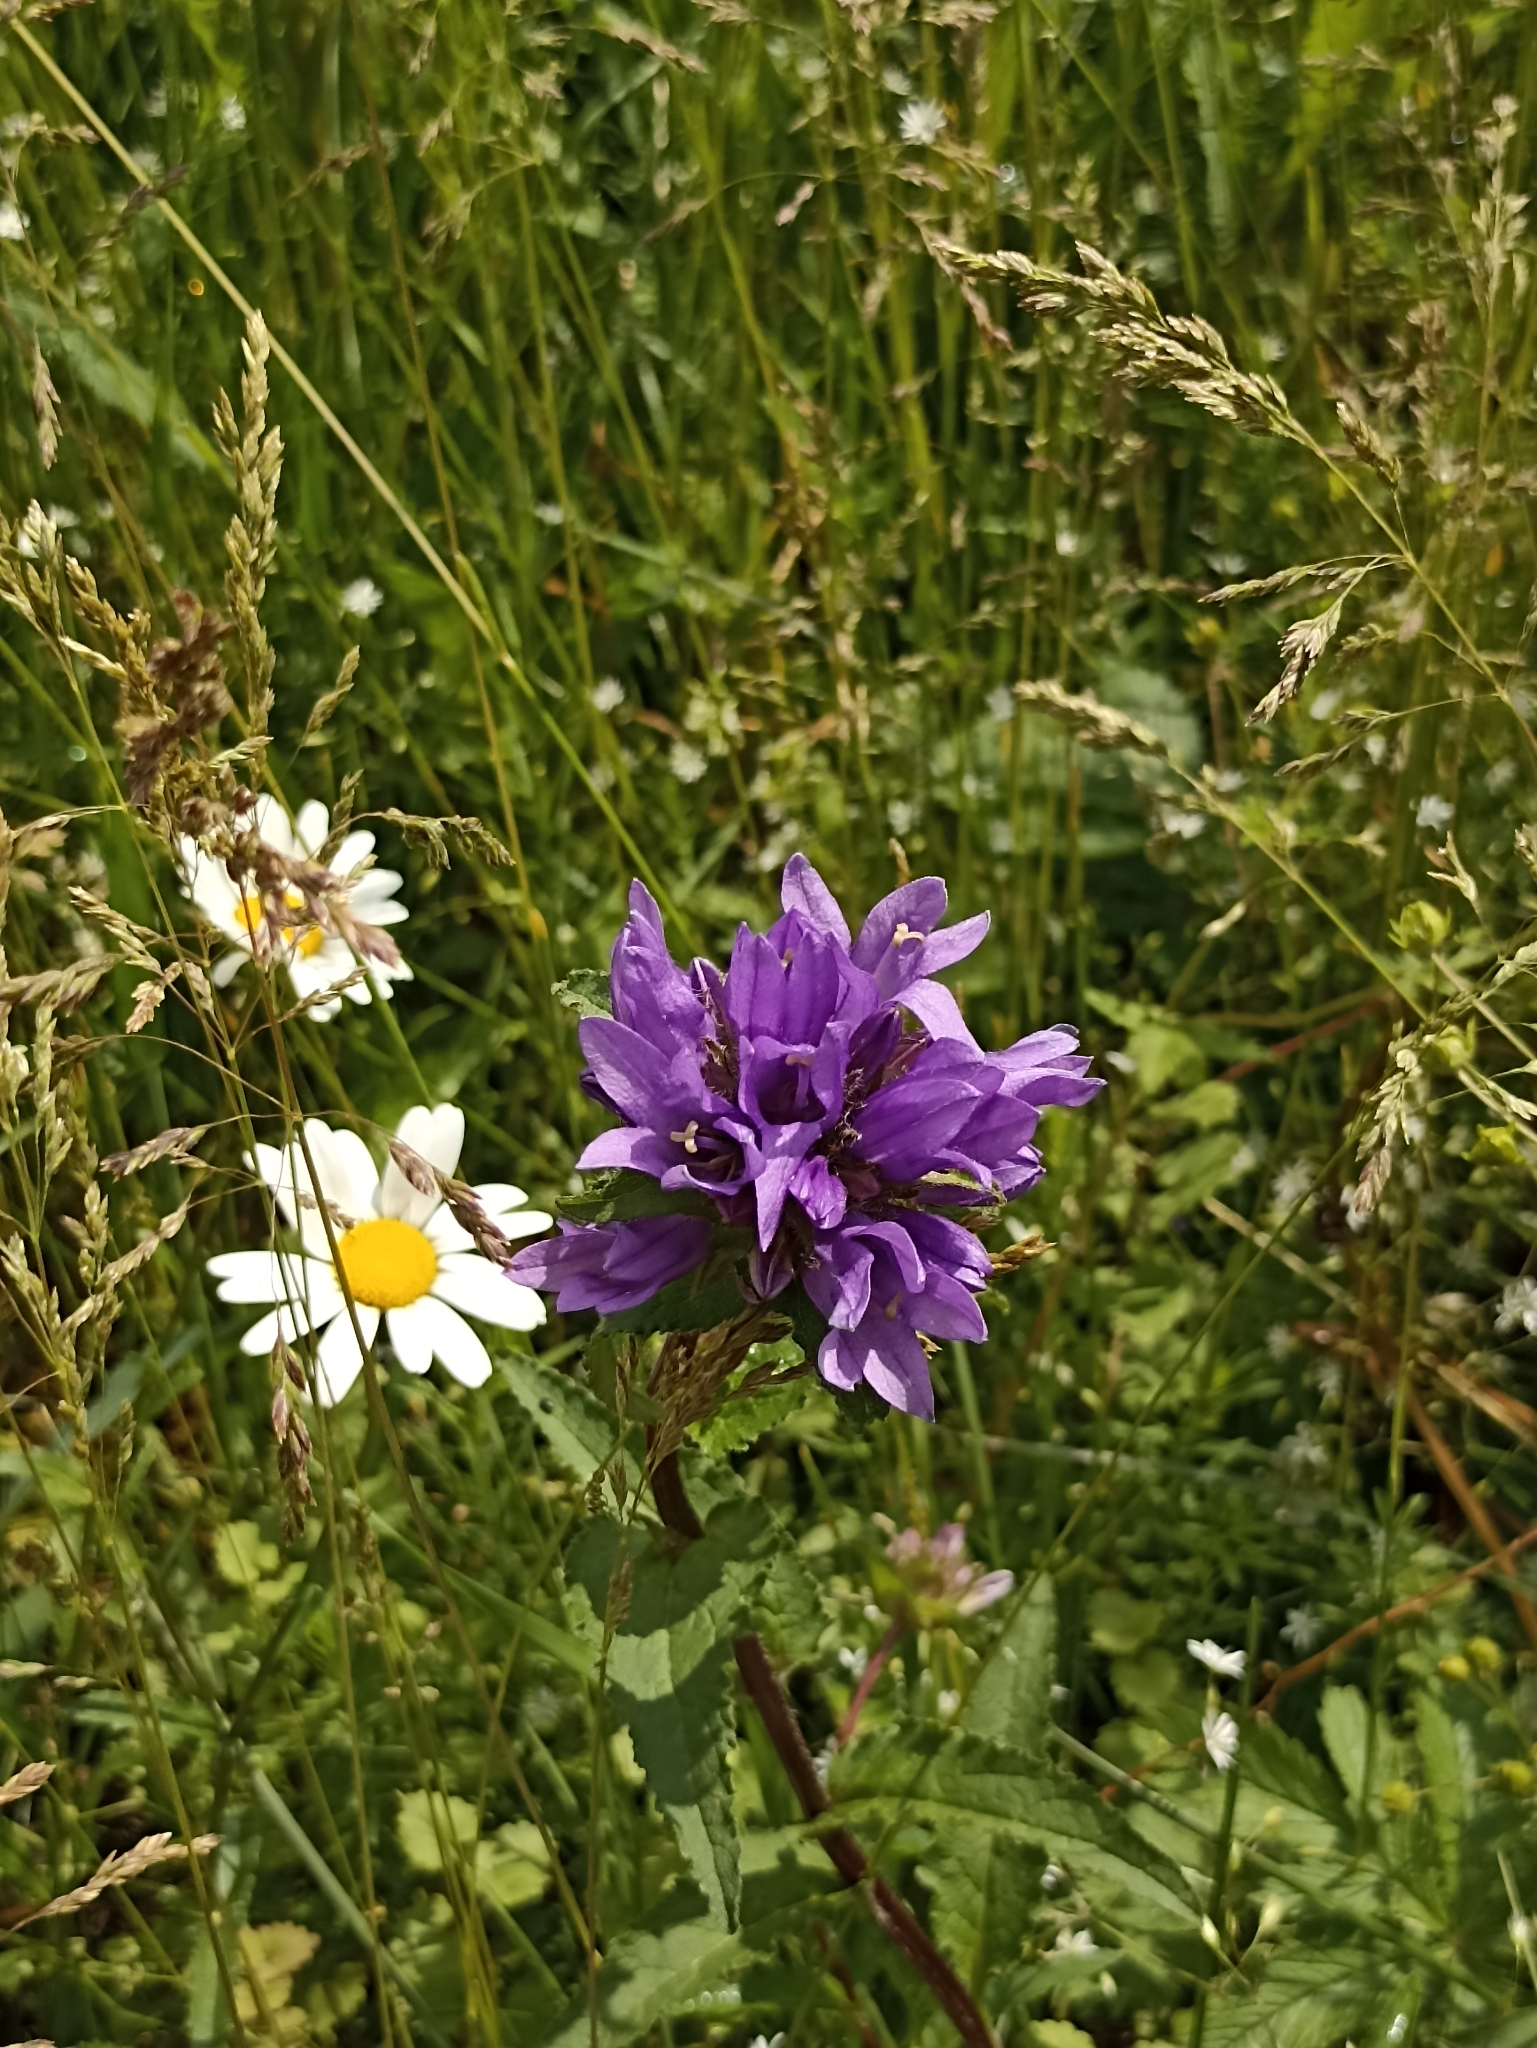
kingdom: Plantae
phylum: Tracheophyta
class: Magnoliopsida
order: Asterales
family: Campanulaceae
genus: Campanula
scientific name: Campanula glomerata
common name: Clustered bellflower
